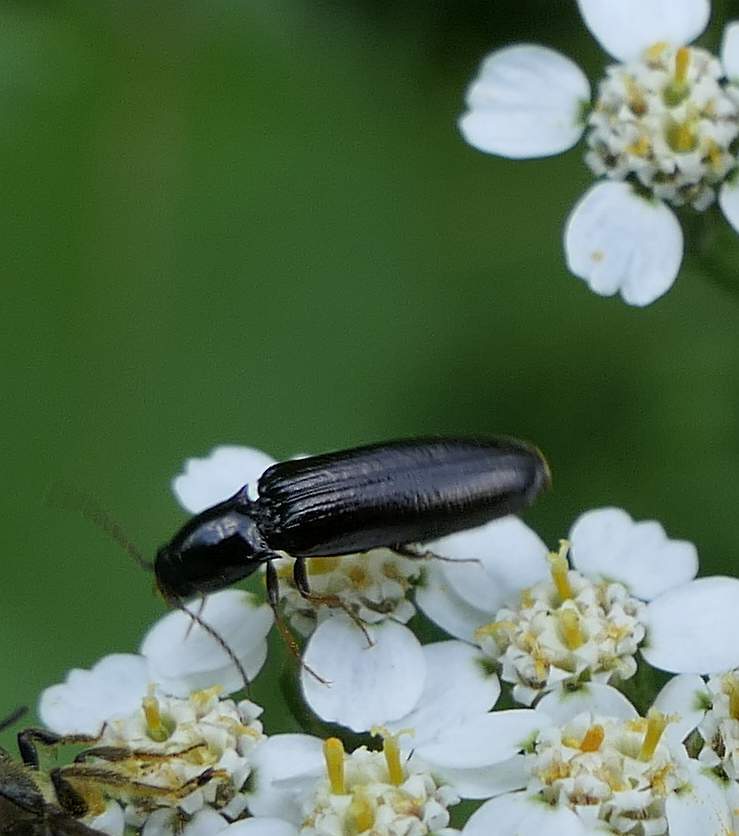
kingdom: Animalia
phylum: Arthropoda
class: Insecta
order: Coleoptera
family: Elateridae
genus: Oestodes
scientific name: Oestodes tenuicollis
